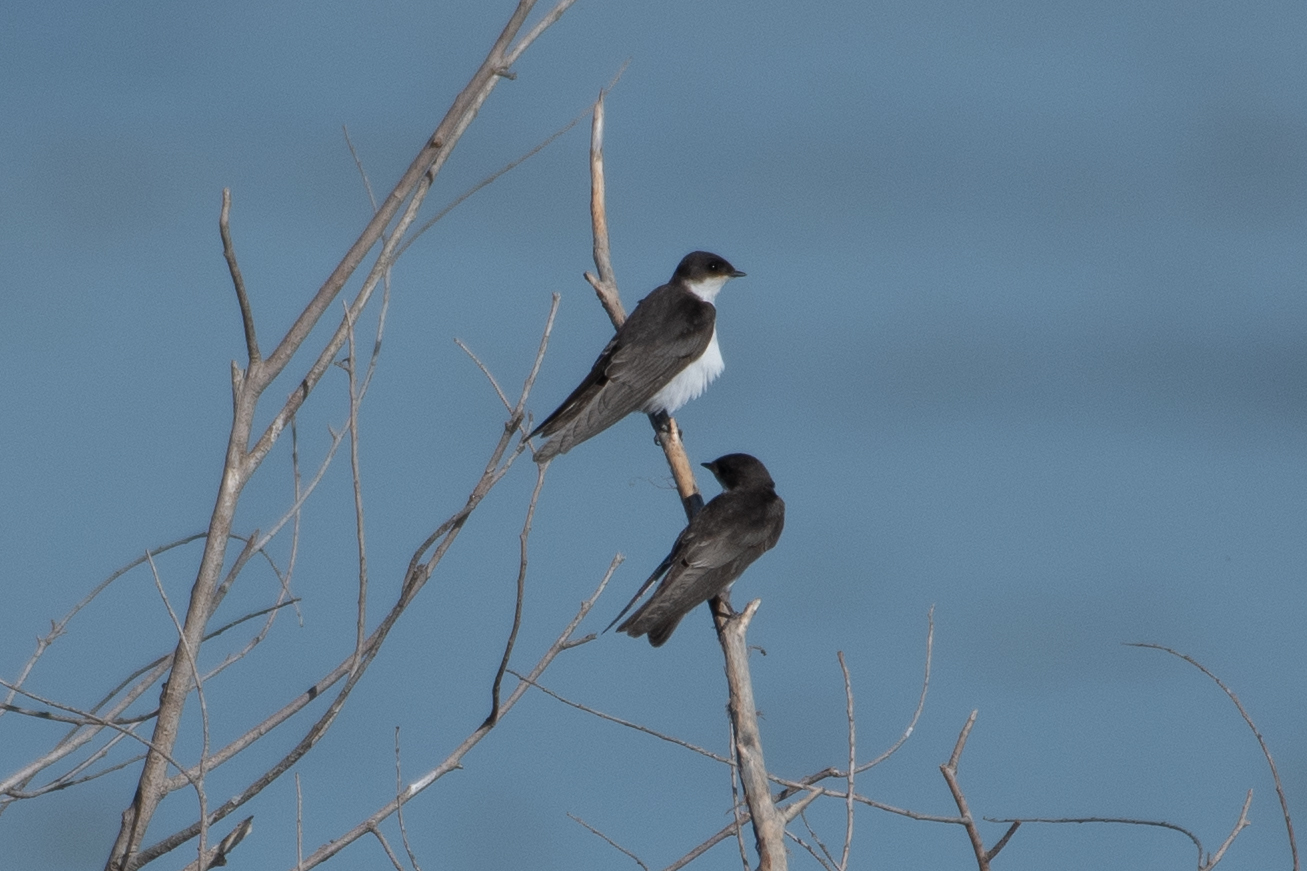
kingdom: Animalia
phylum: Chordata
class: Aves
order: Passeriformes
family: Hirundinidae
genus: Tachycineta
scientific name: Tachycineta bicolor
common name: Tree swallow
